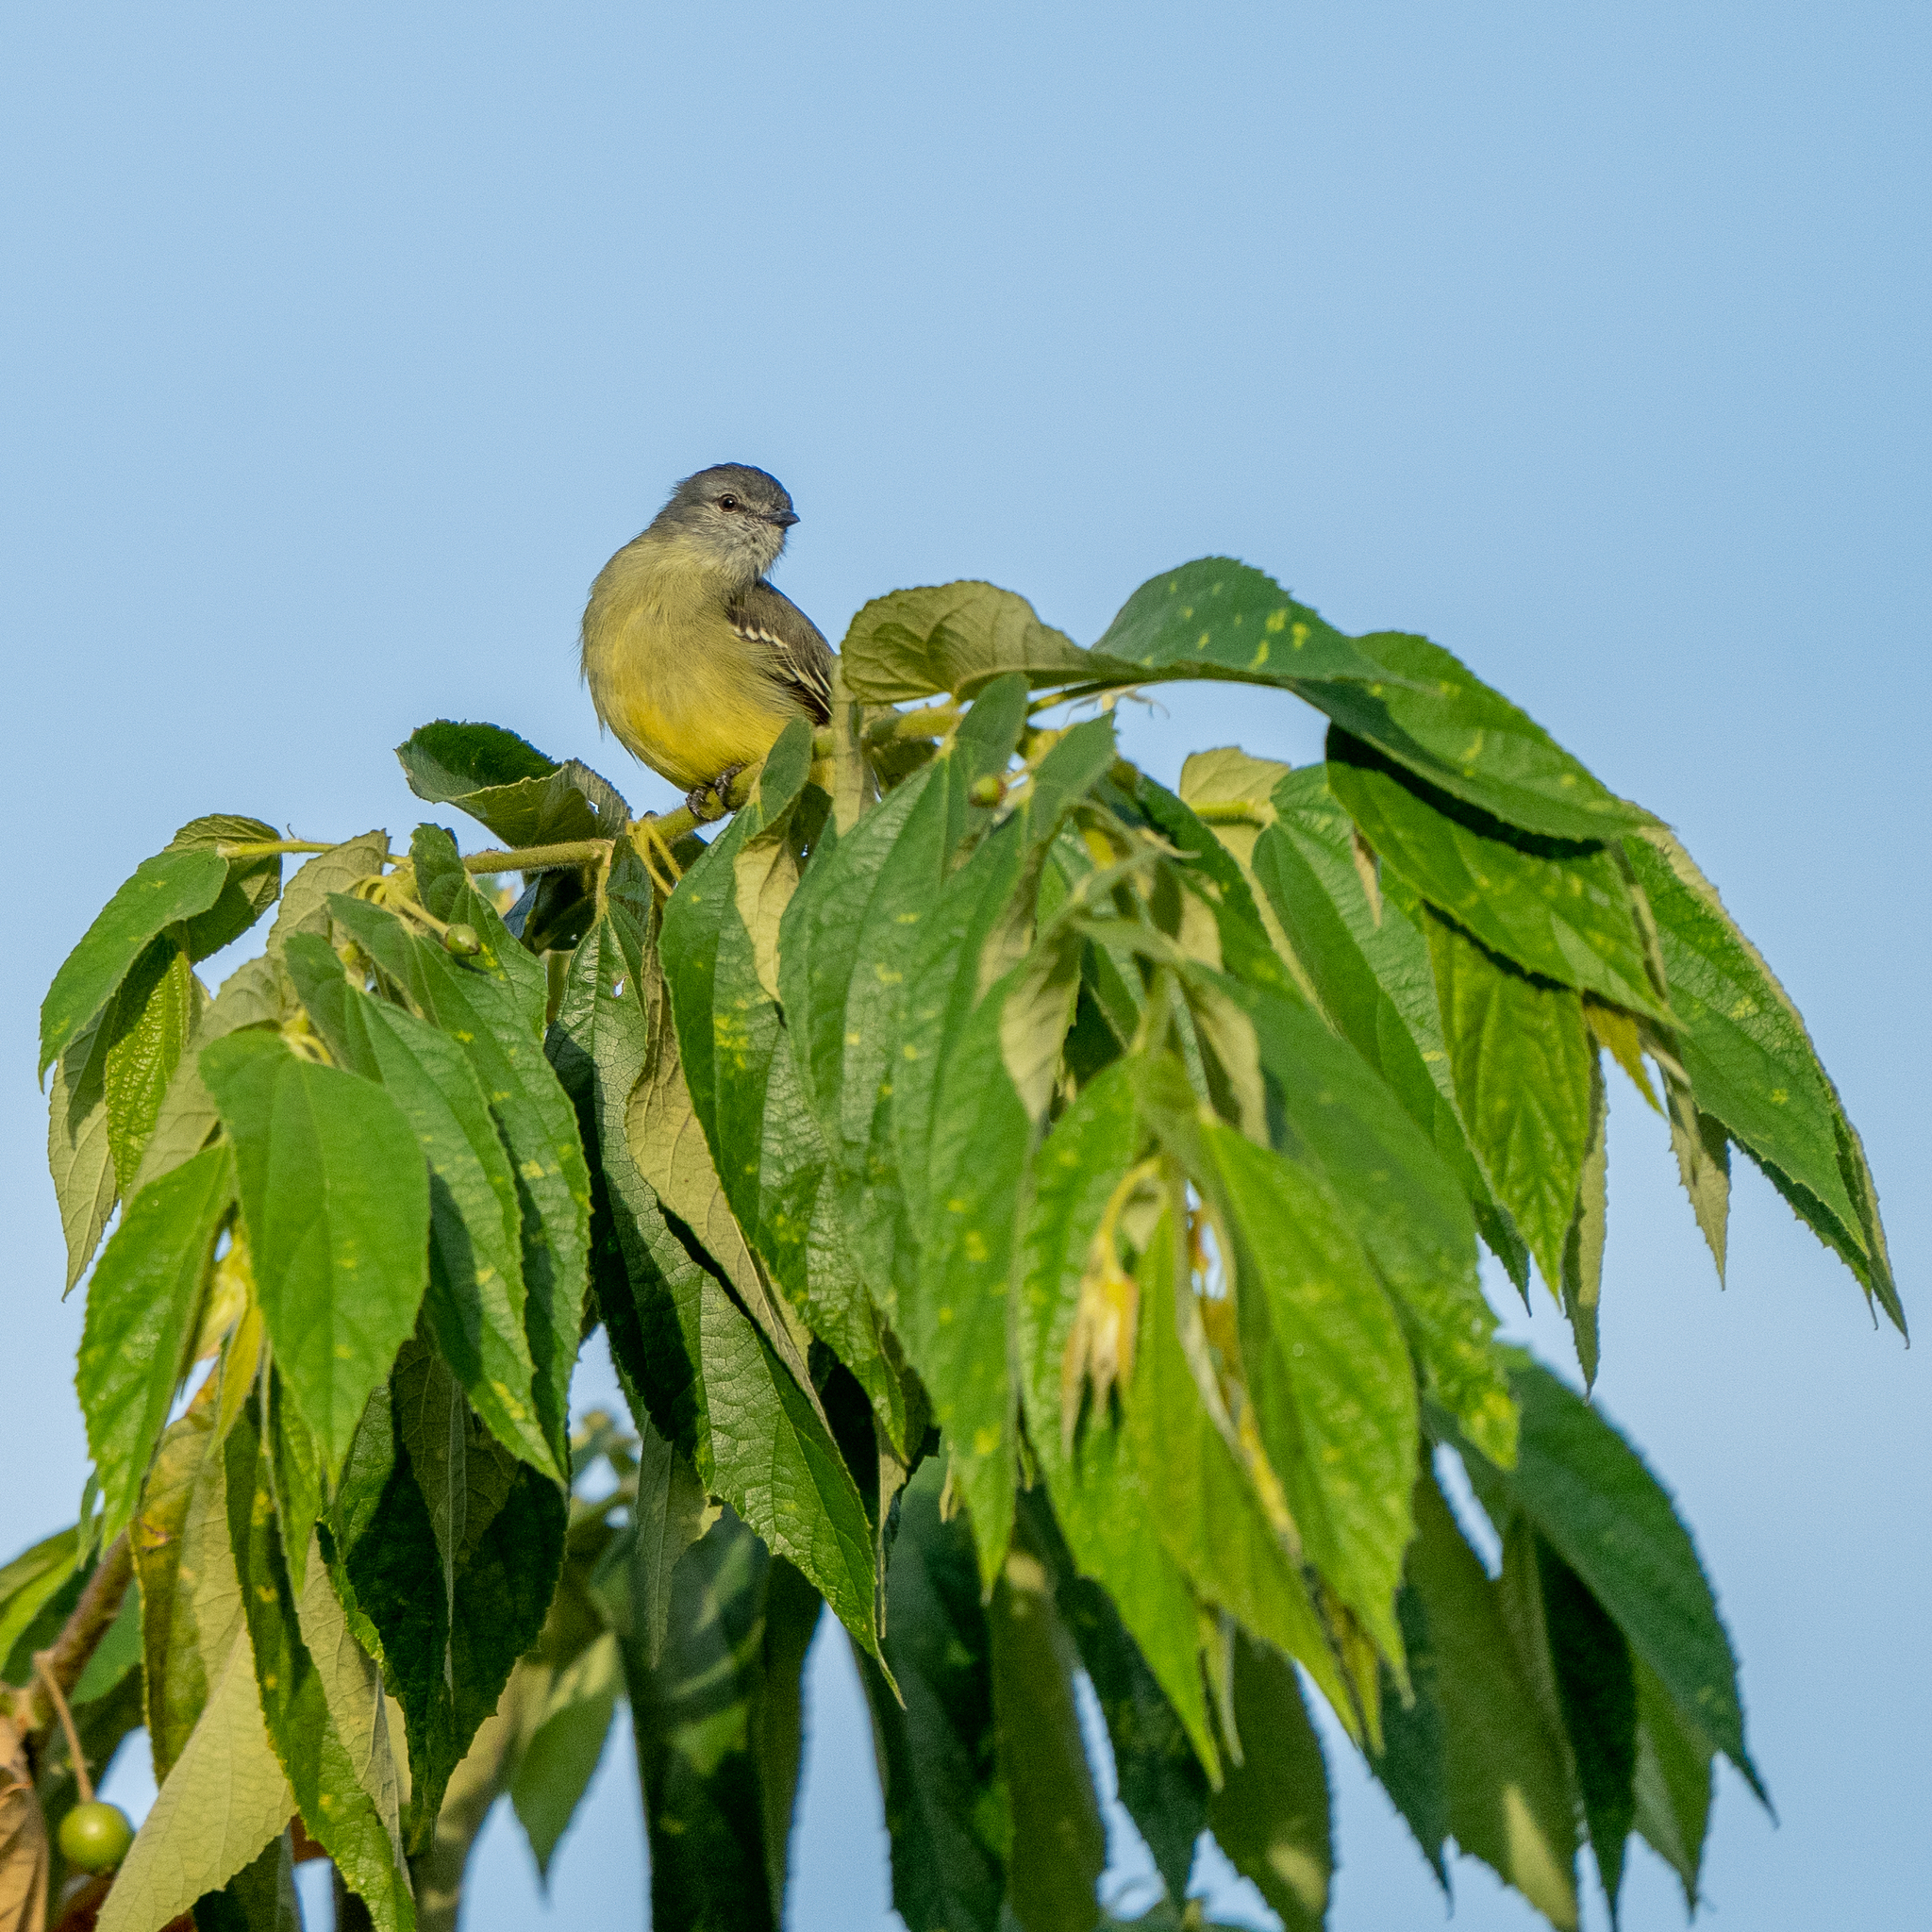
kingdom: Animalia
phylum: Chordata
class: Aves
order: Passeriformes
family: Tyrannidae
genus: Tyrannulus
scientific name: Tyrannulus elatus
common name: Yellow-crowned tyrannulet
